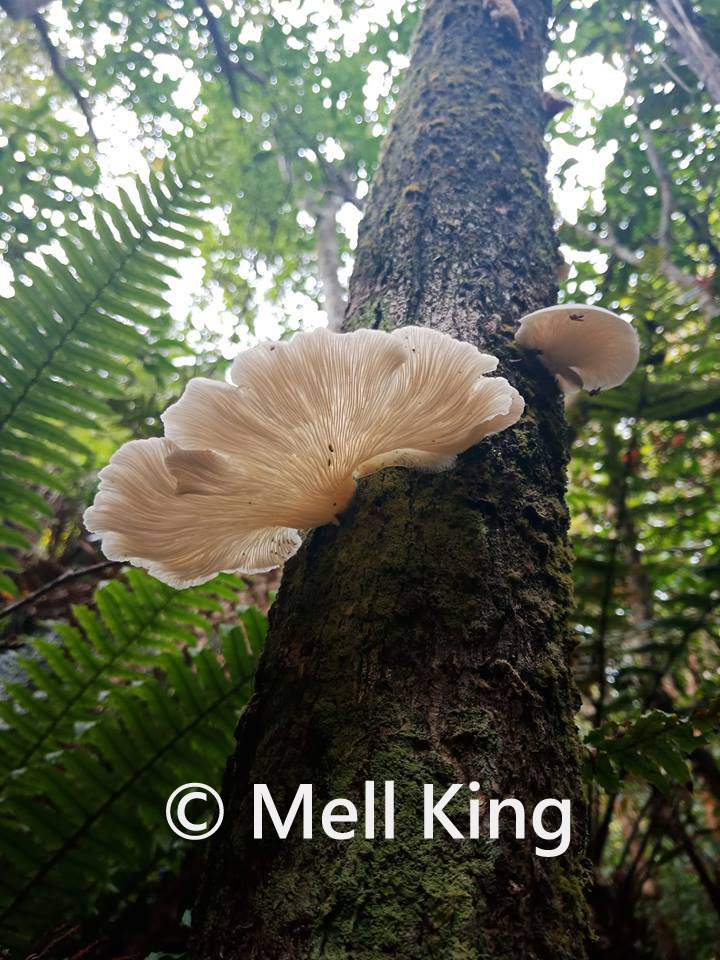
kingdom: Fungi
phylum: Basidiomycota
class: Agaricomycetes
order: Agaricales
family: Pleurotaceae
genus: Pleurotus
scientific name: Pleurotus parsonsiae
